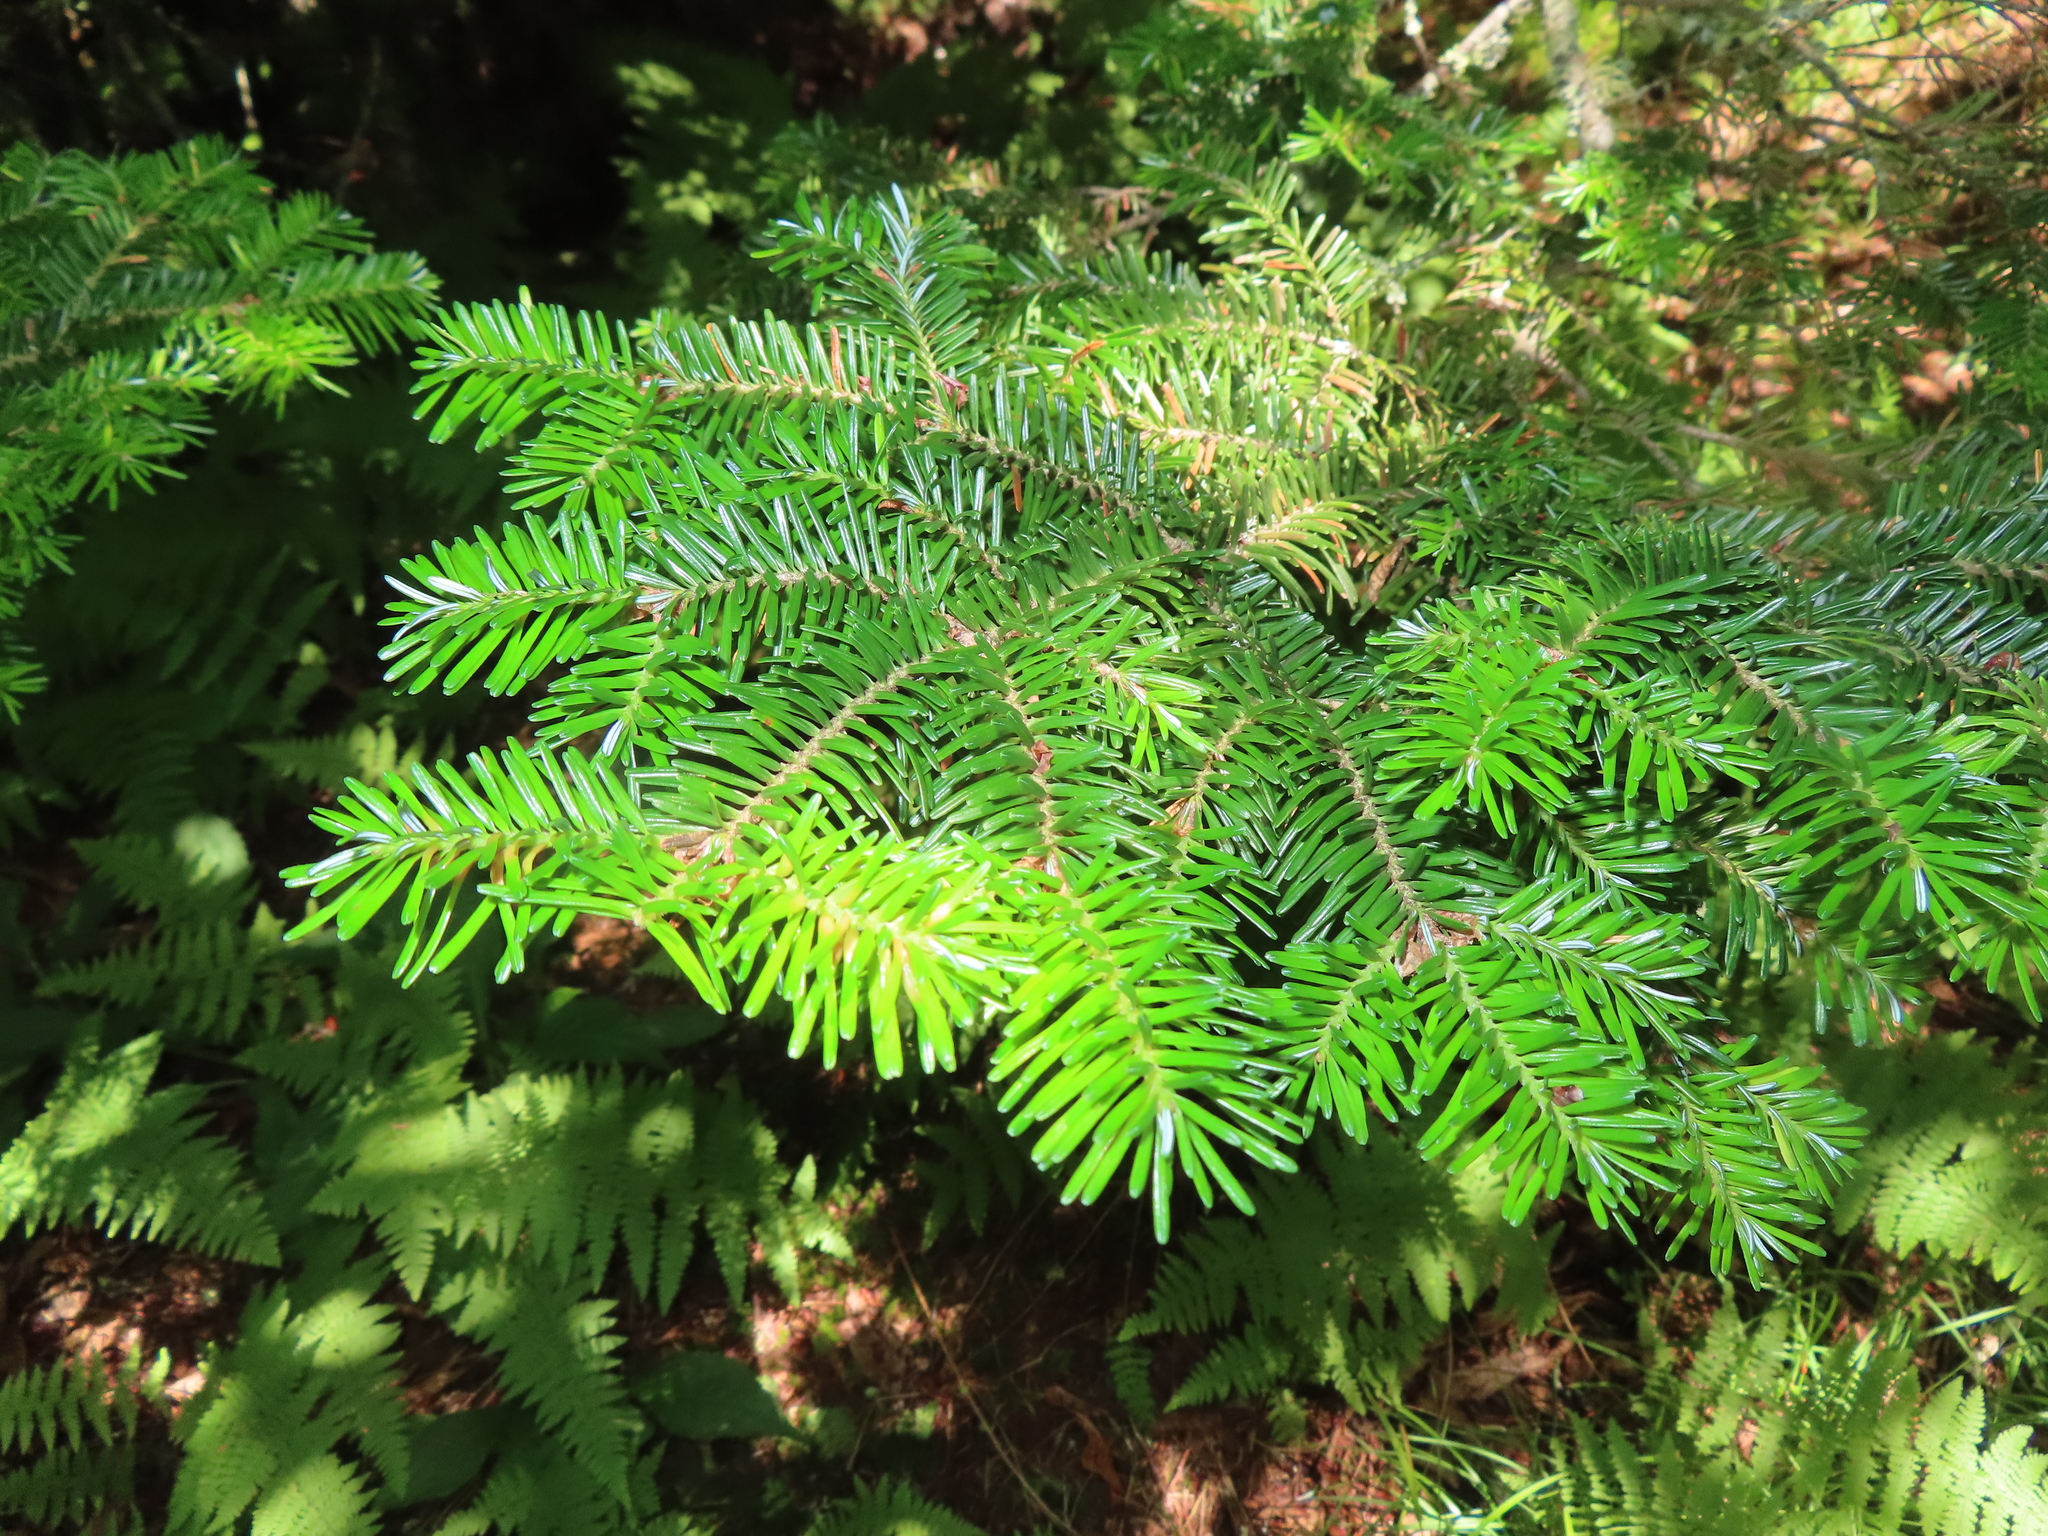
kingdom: Plantae
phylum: Tracheophyta
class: Pinopsida
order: Pinales
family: Pinaceae
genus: Abies
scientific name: Abies fraseri
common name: Fraser fir
